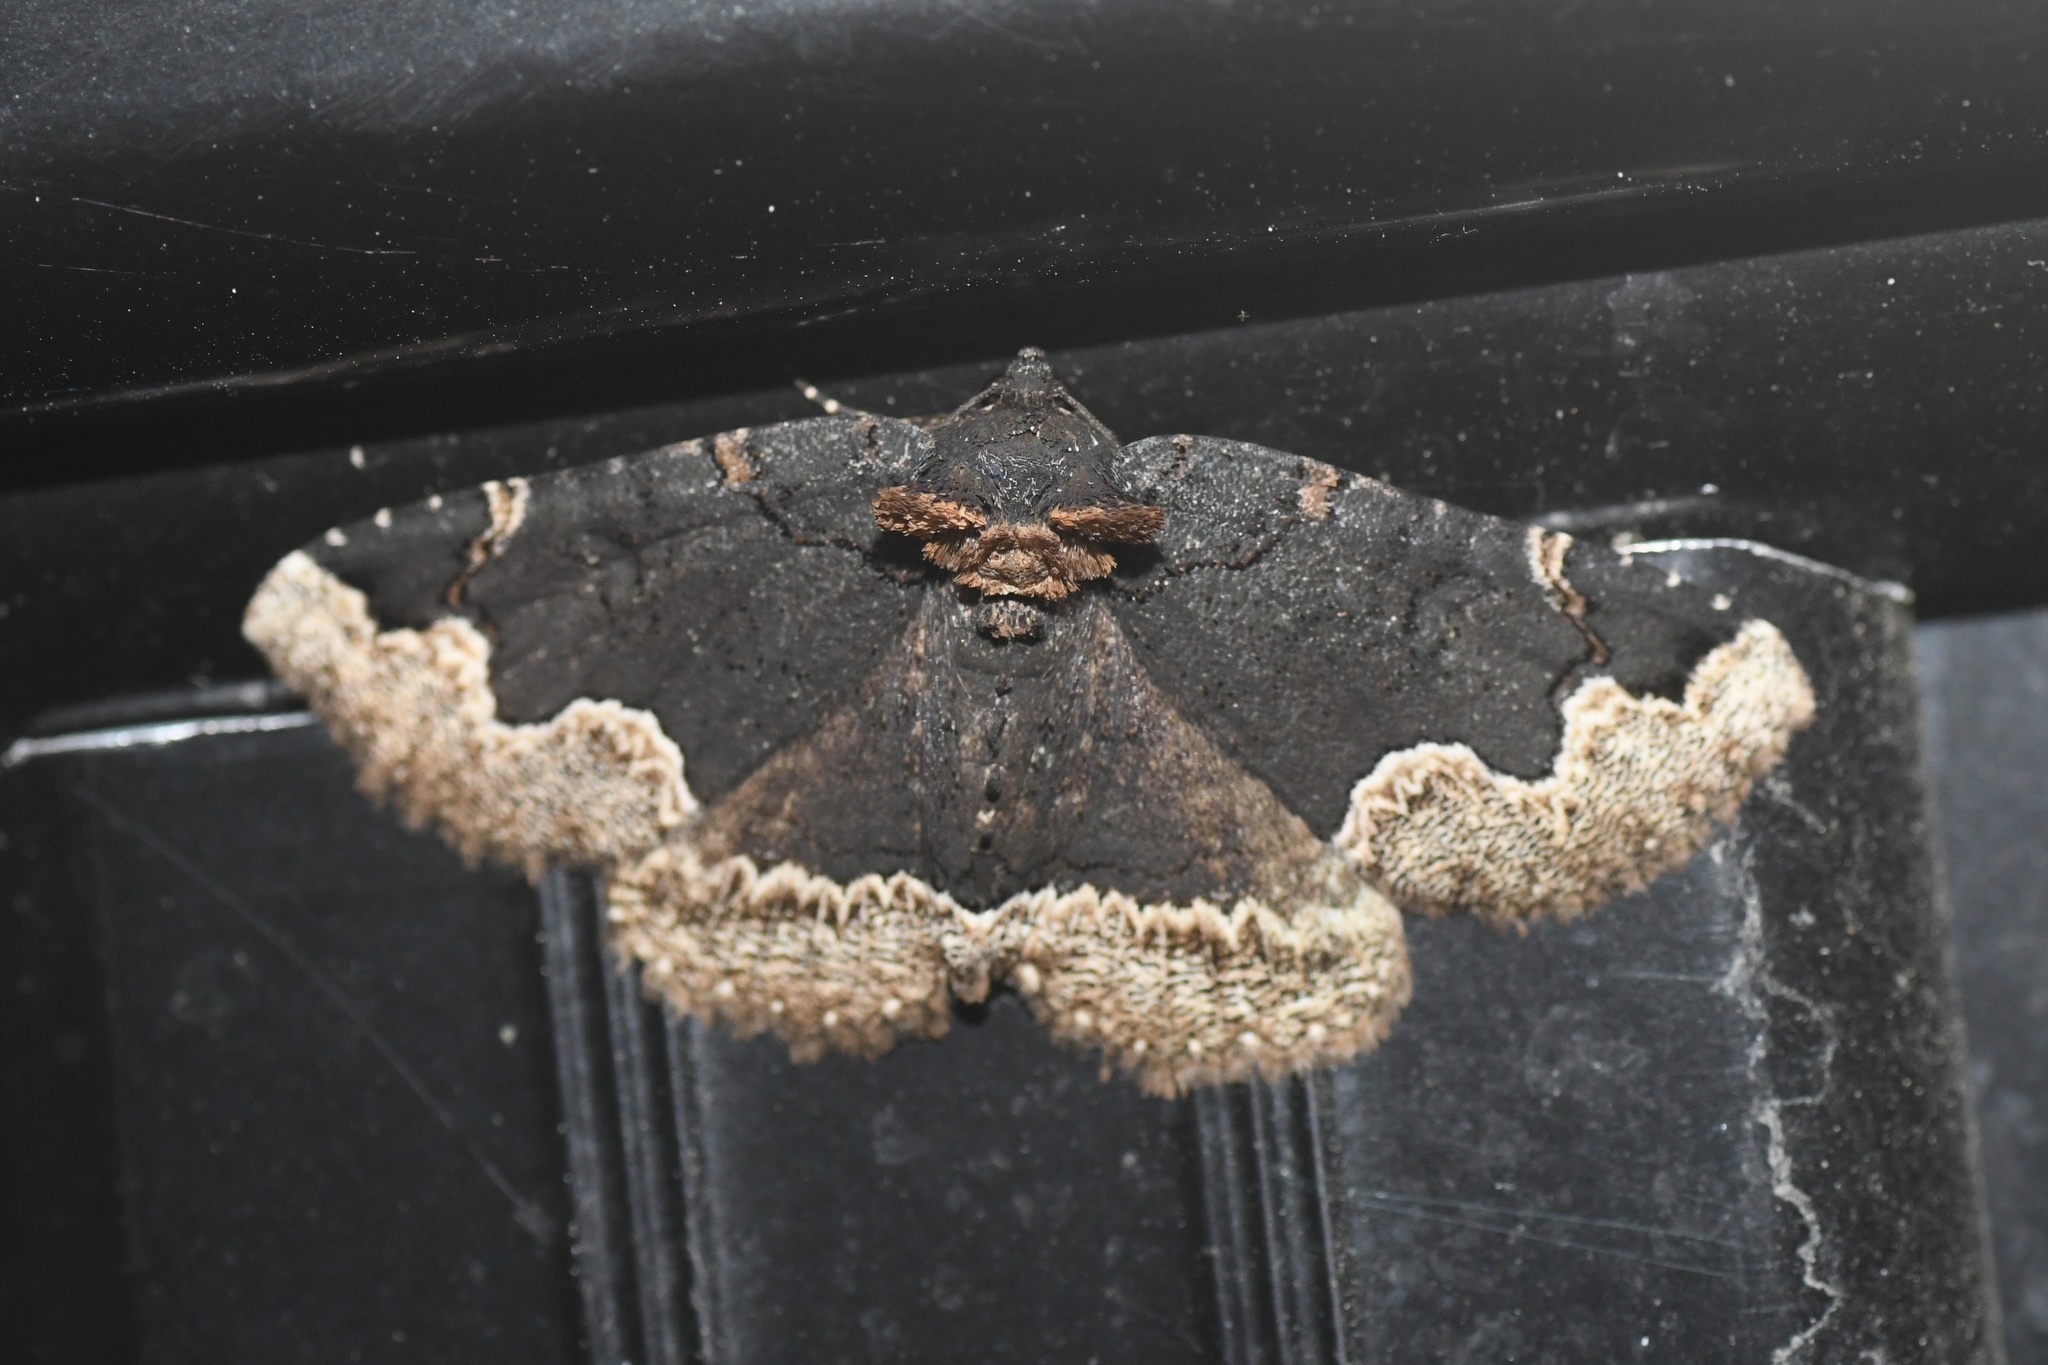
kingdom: Animalia
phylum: Arthropoda
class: Insecta
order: Lepidoptera
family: Erebidae
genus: Zale
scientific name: Zale horrida
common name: Horrid zale moth
